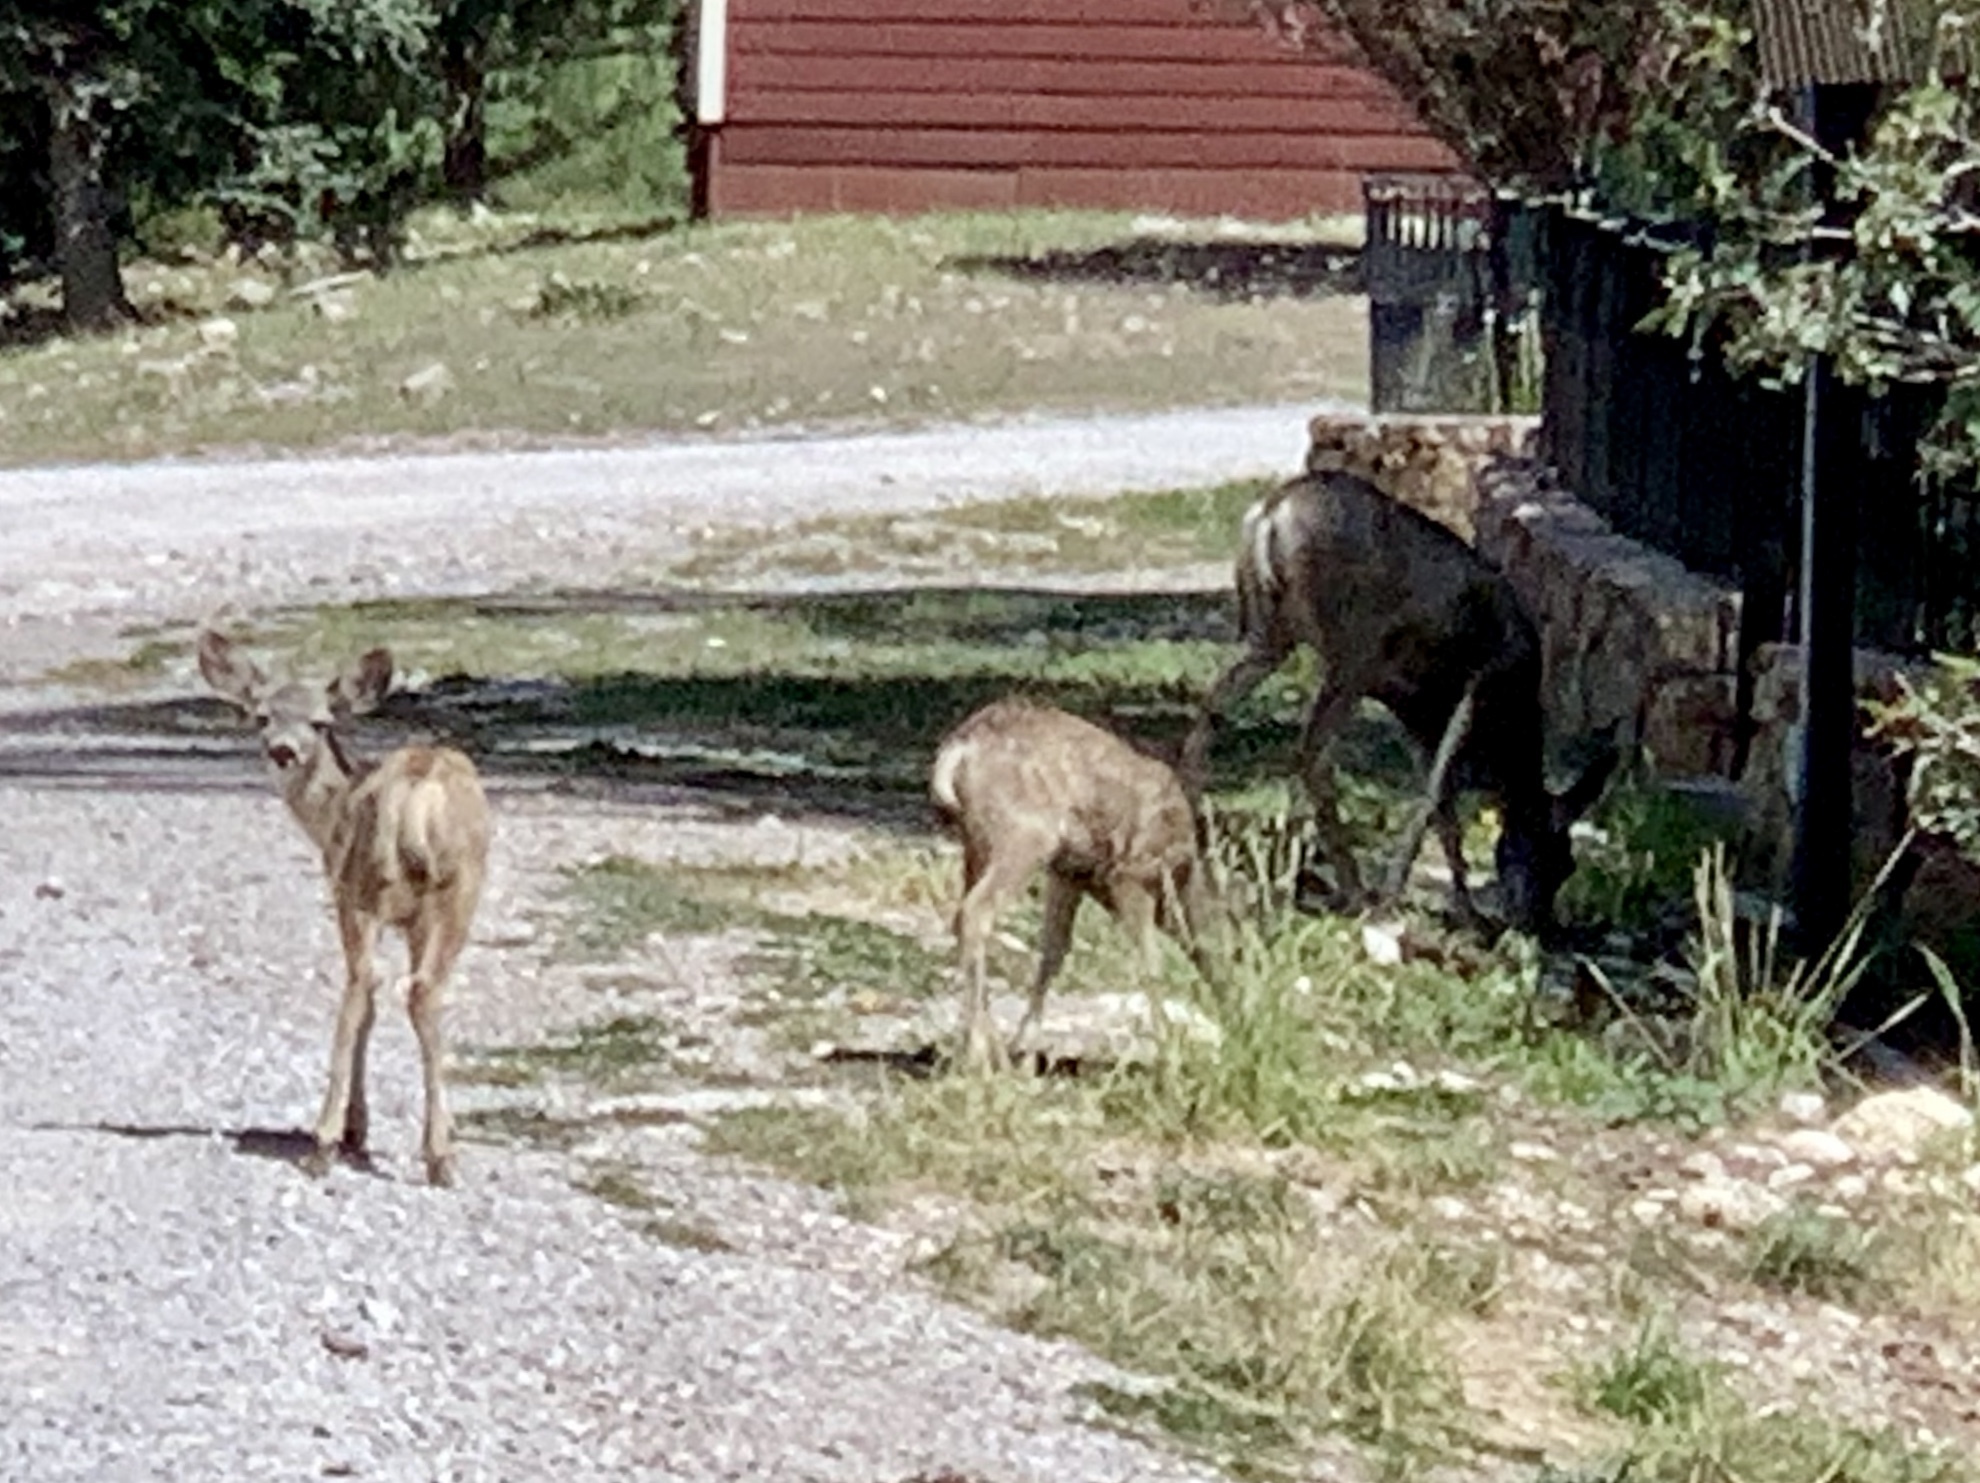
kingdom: Animalia
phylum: Chordata
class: Mammalia
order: Artiodactyla
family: Cervidae
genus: Odocoileus
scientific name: Odocoileus hemionus
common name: Mule deer
